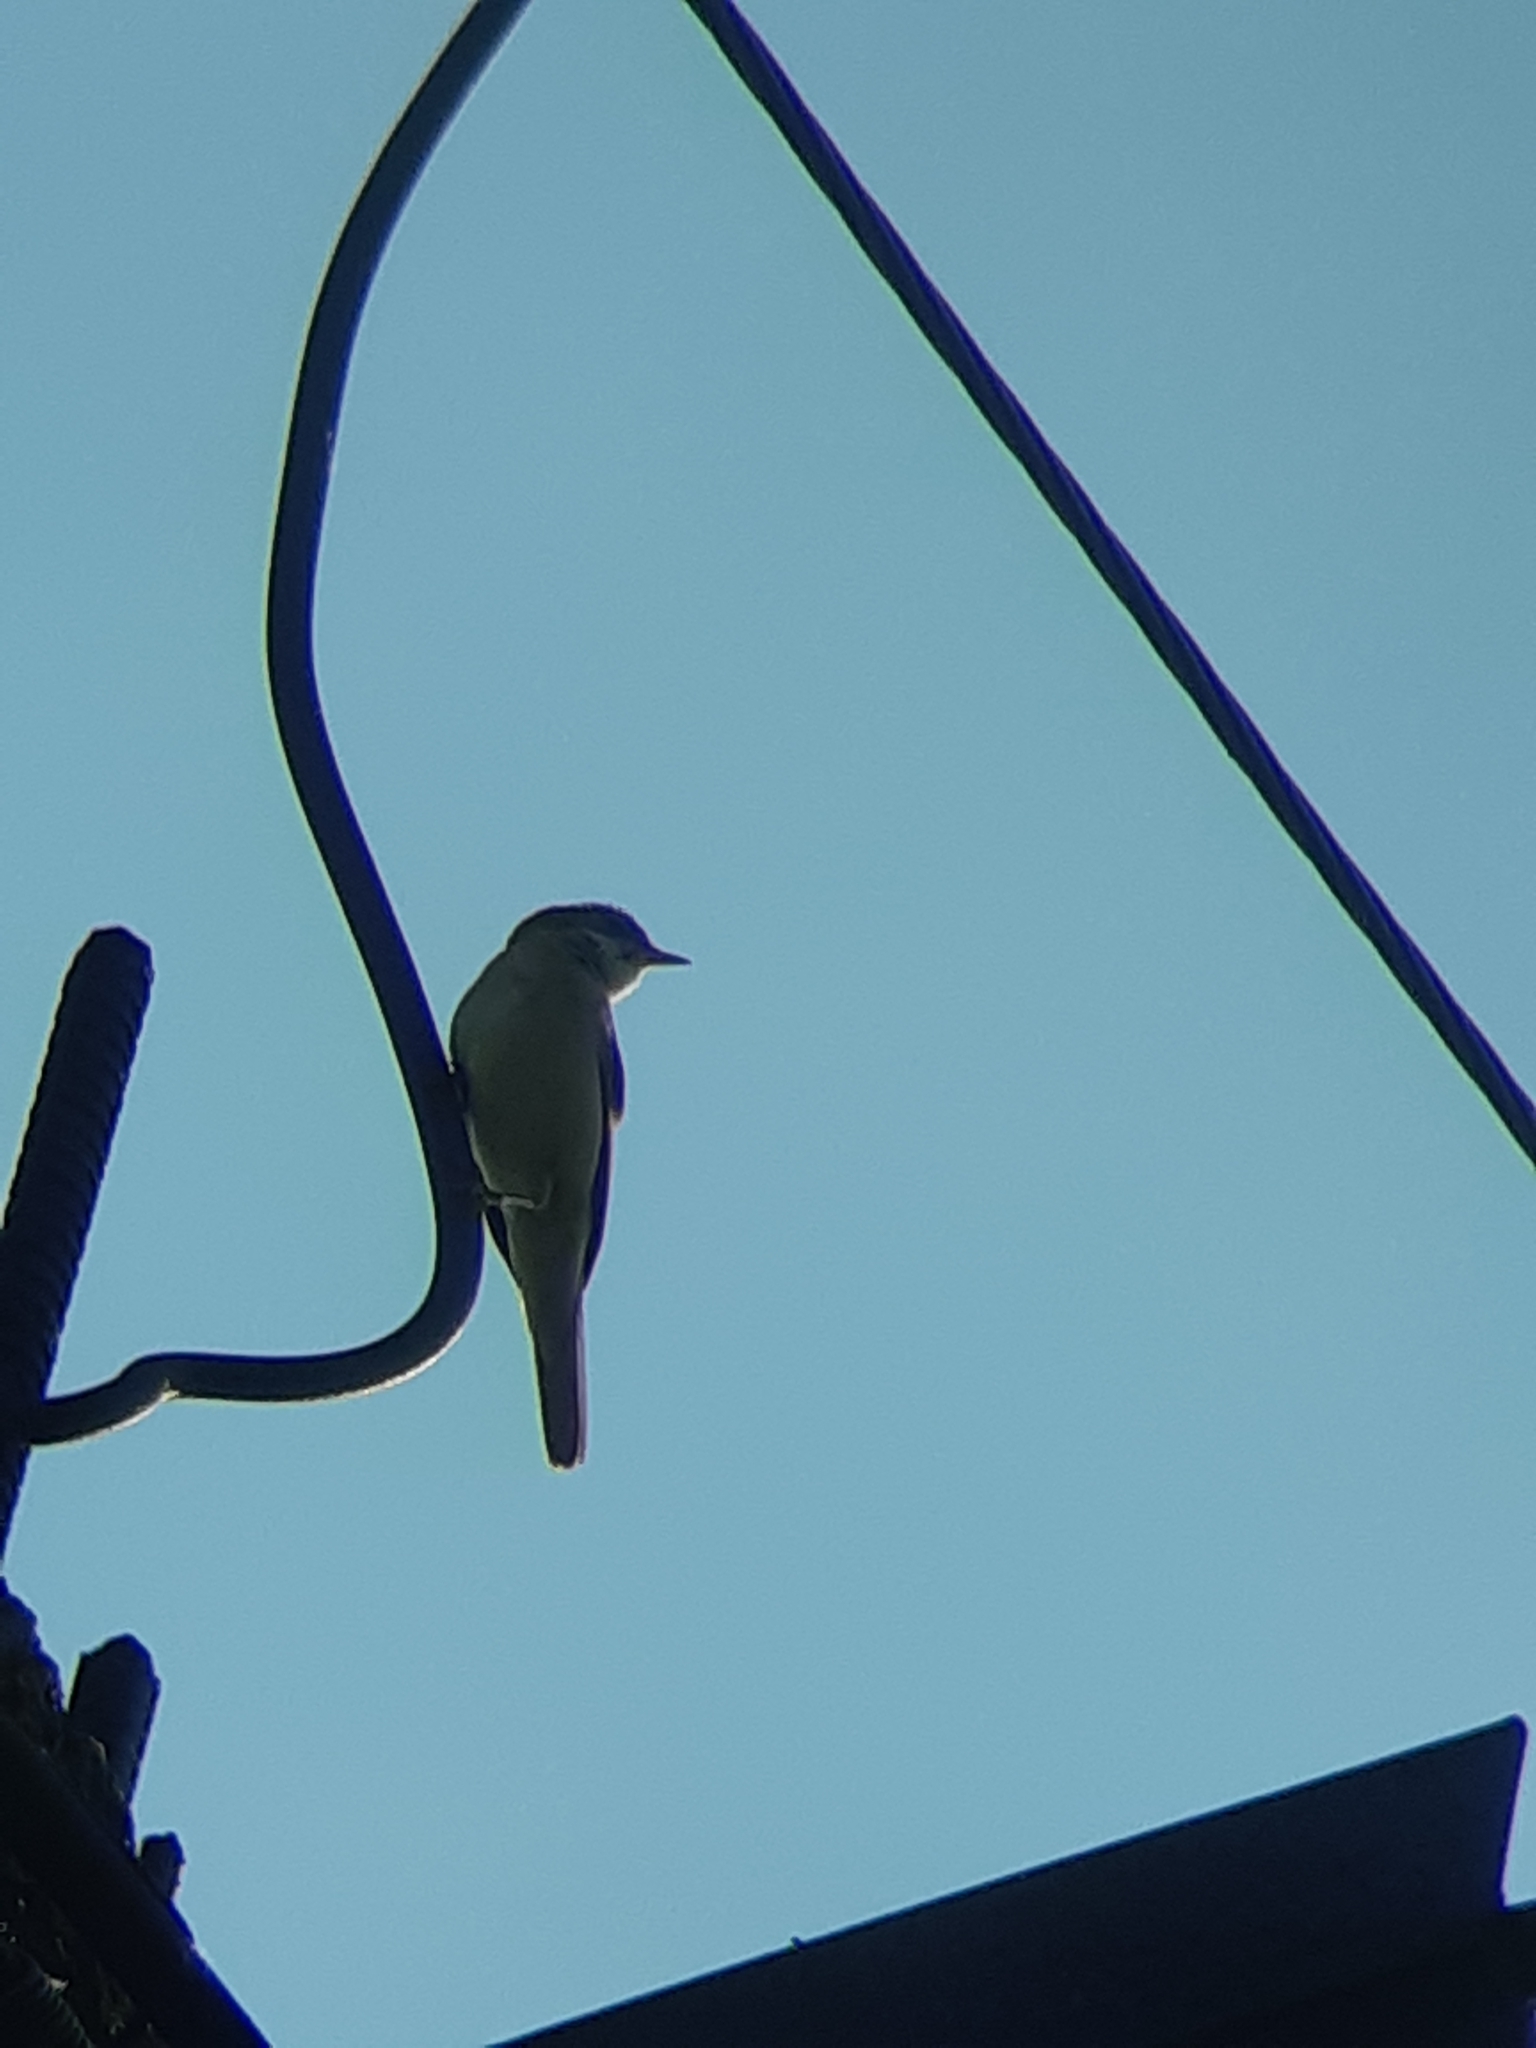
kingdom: Animalia
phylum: Chordata
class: Aves
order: Passeriformes
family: Sylviidae
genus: Sylvia
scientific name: Sylvia communis
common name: Common whitethroat
